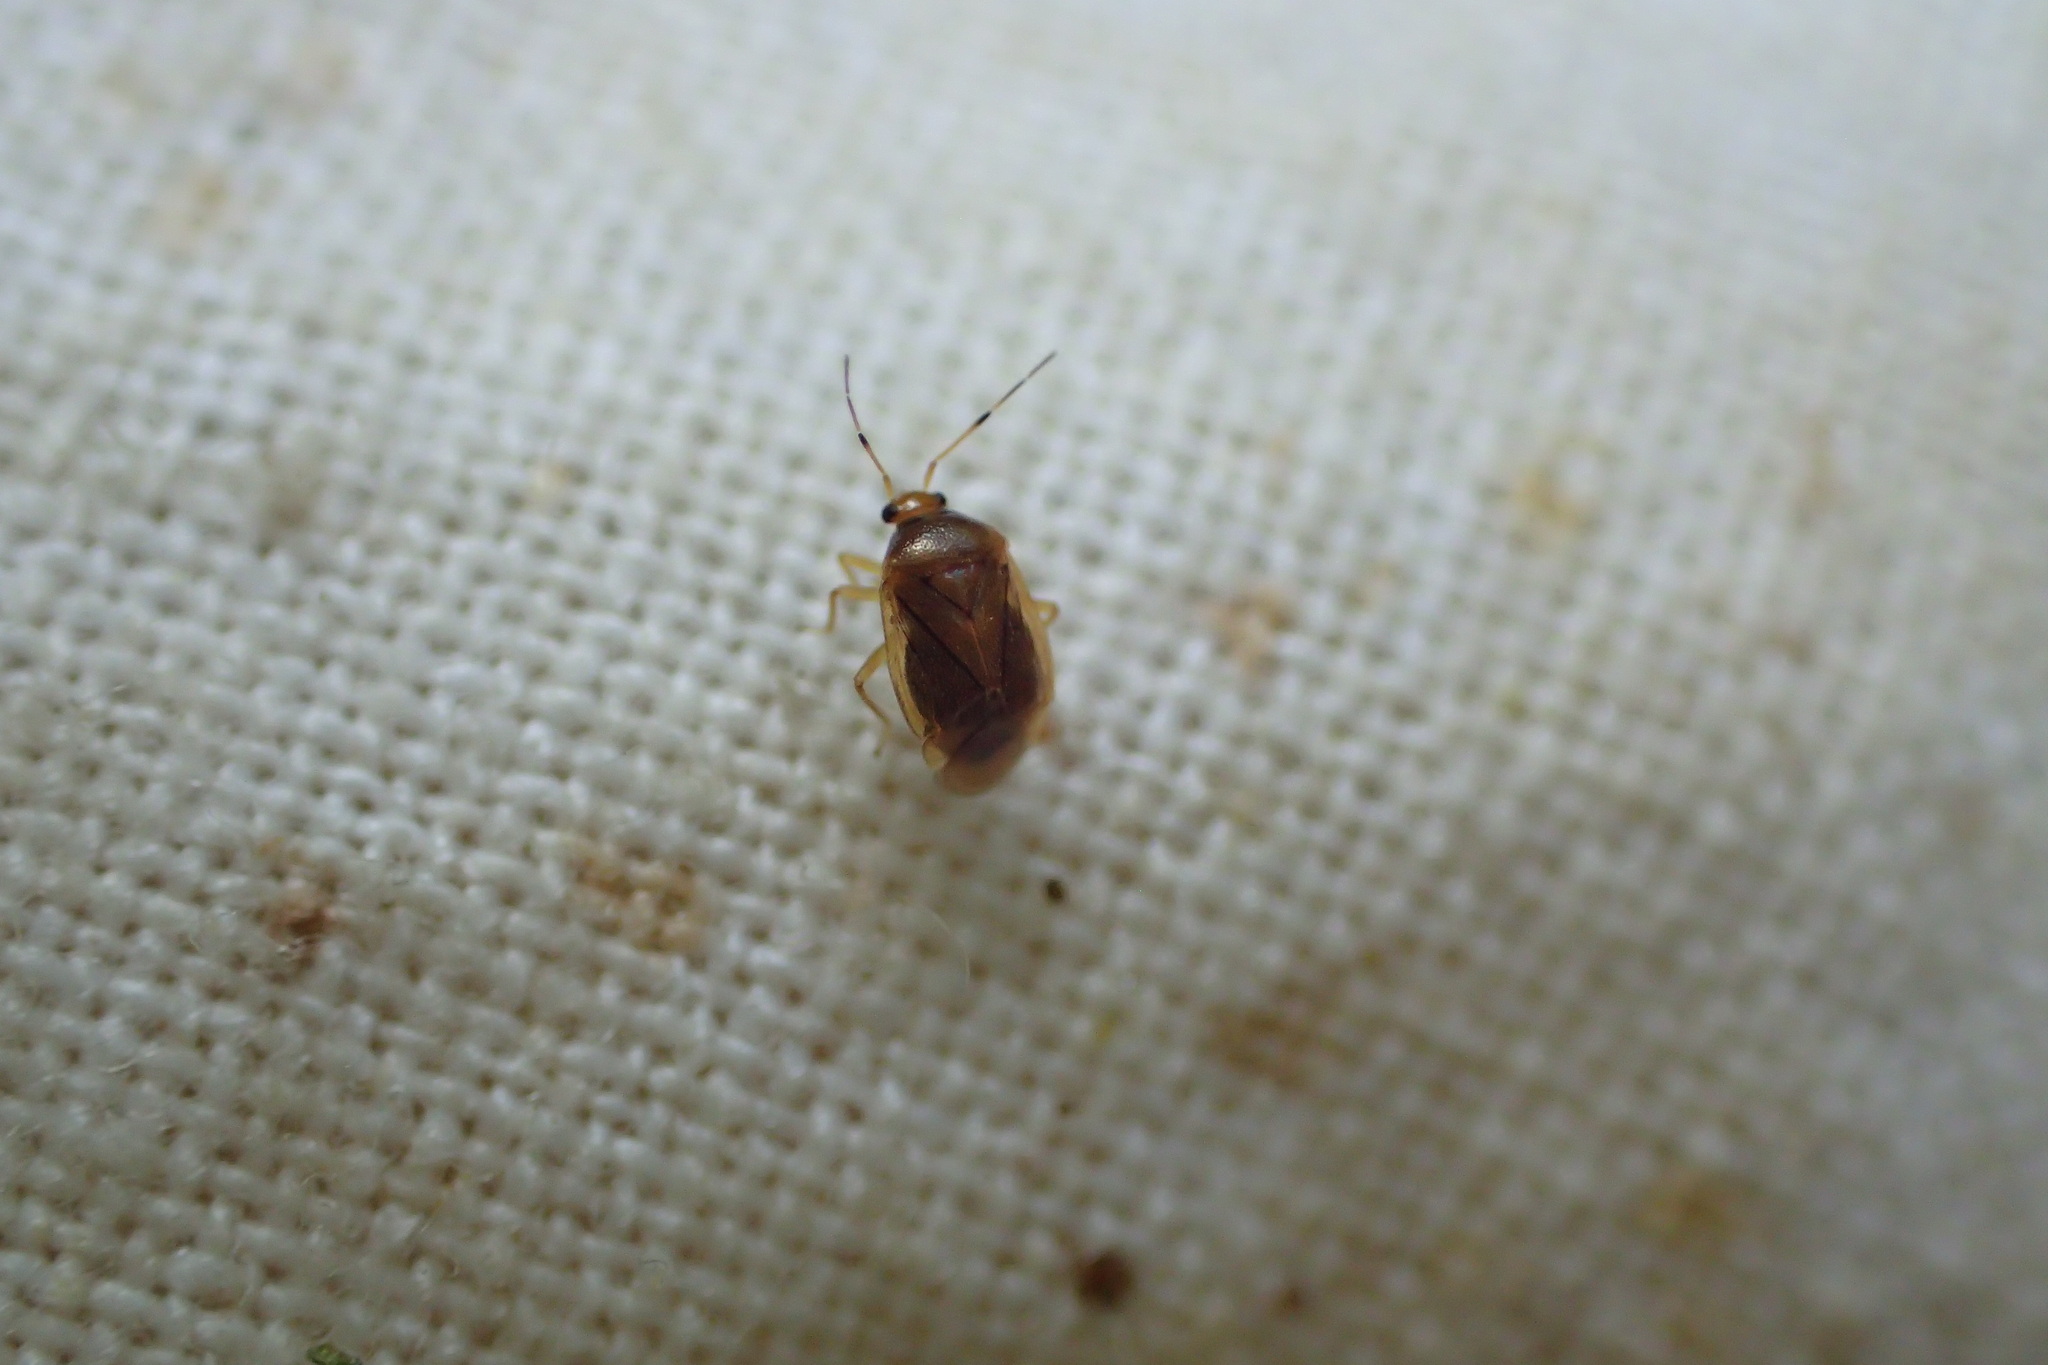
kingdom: Animalia
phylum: Arthropoda
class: Insecta
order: Hemiptera
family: Miridae
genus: Monalocoris
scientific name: Monalocoris filicis
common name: Bracken bug
